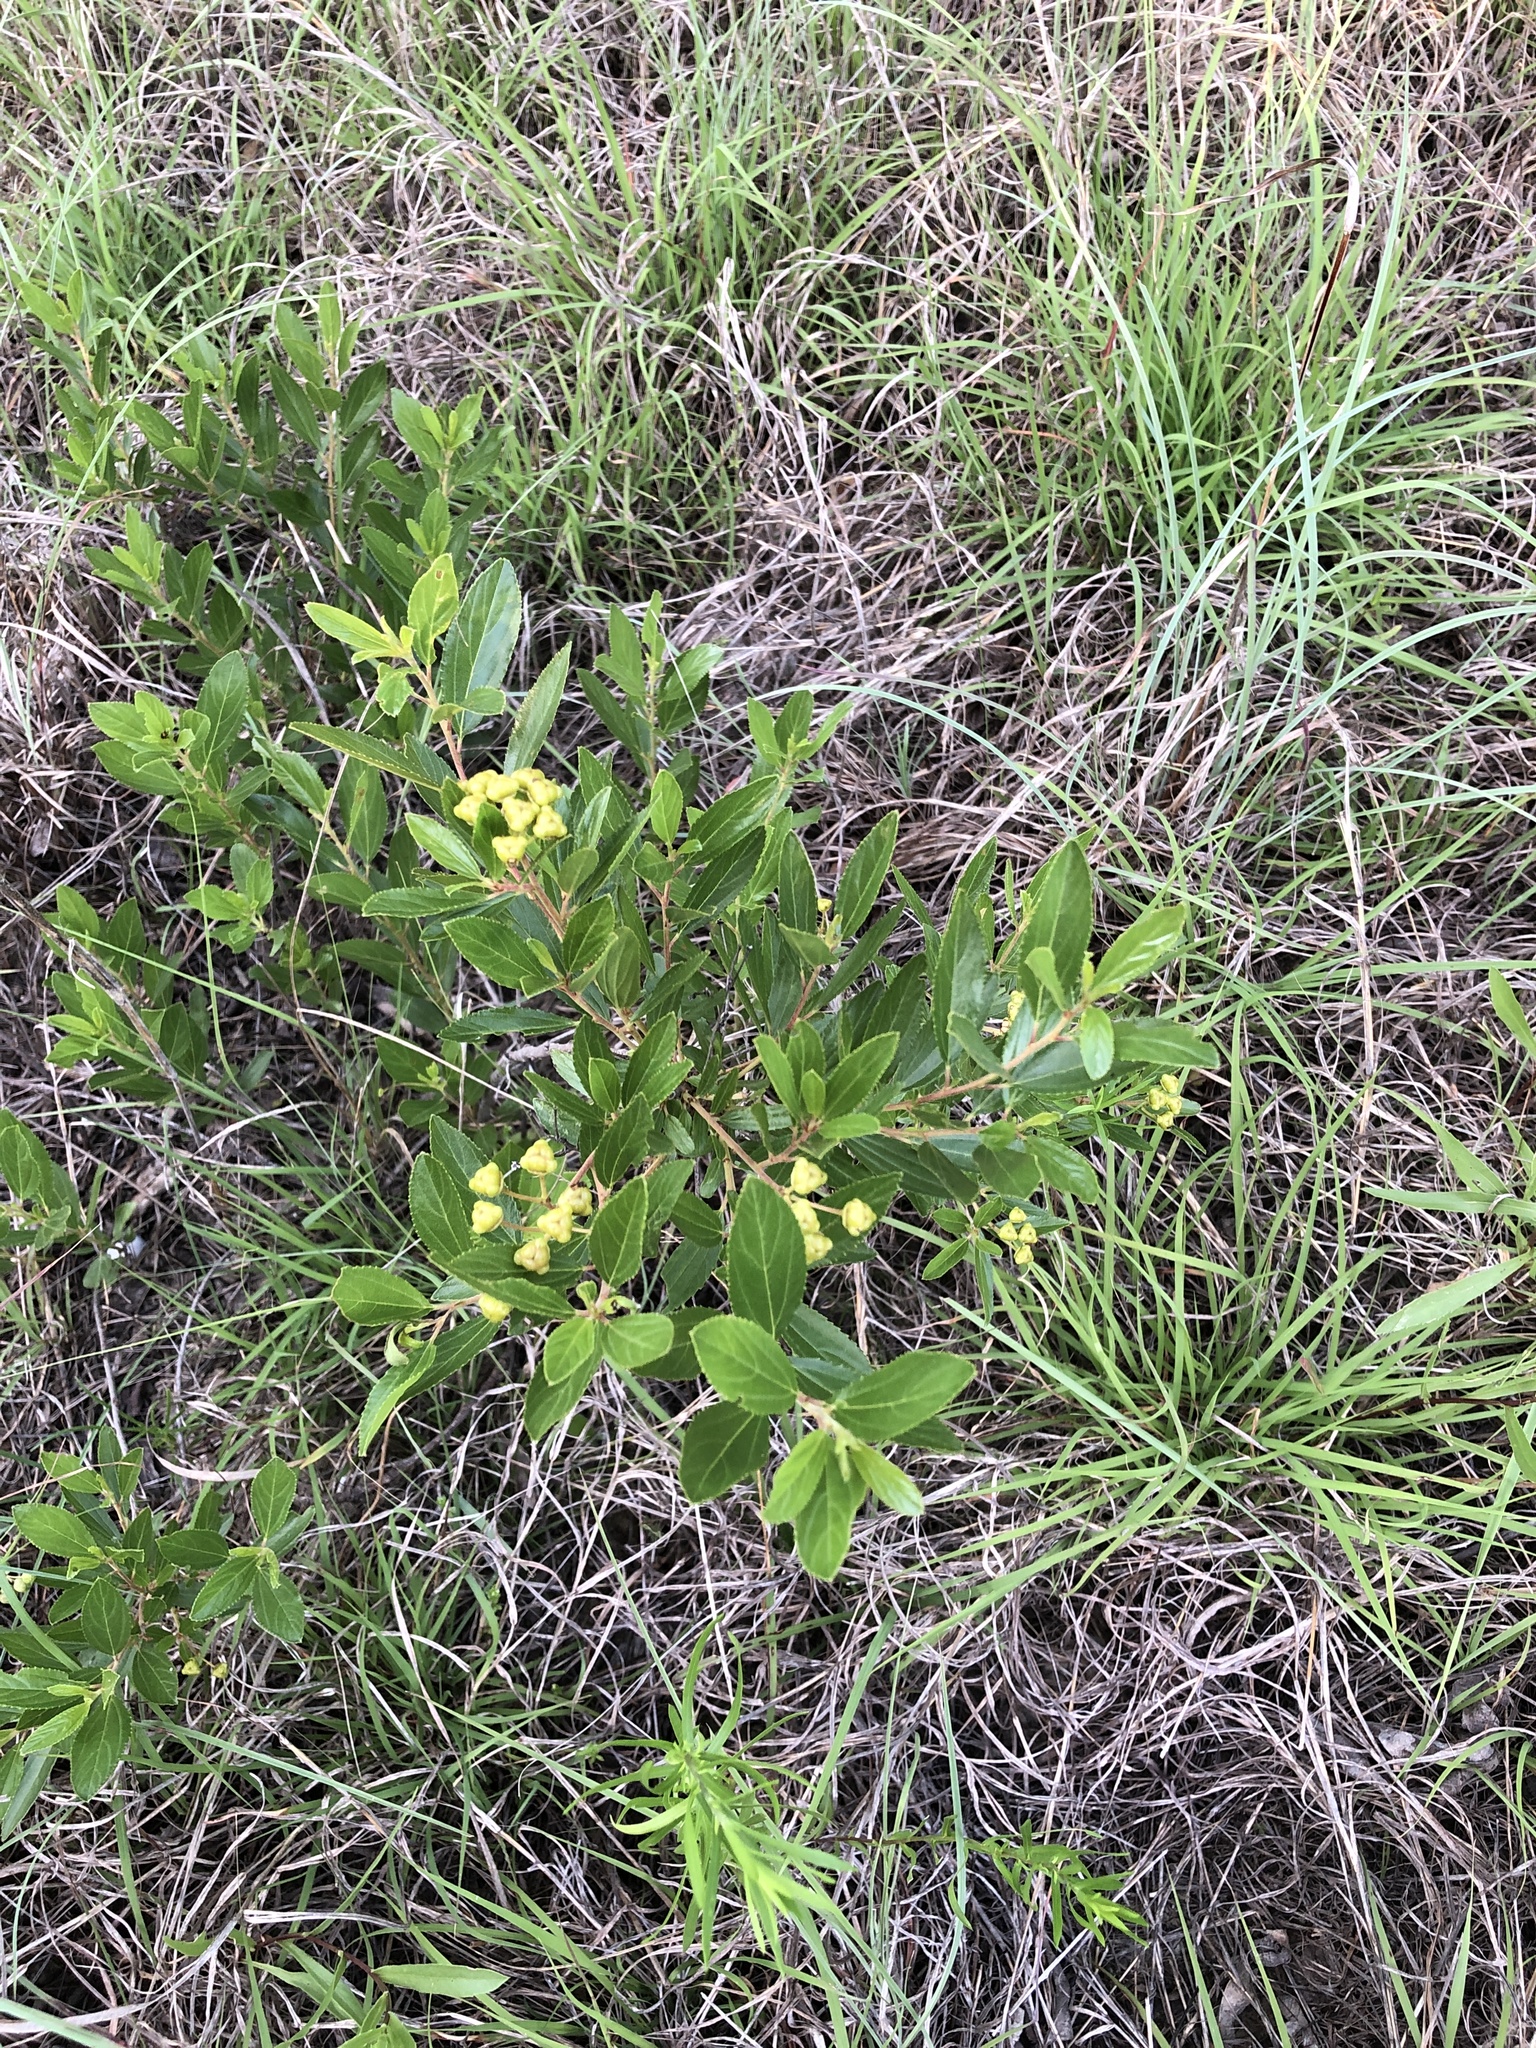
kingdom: Plantae
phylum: Tracheophyta
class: Magnoliopsida
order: Rosales
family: Rhamnaceae
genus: Ceanothus
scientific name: Ceanothus herbaceus
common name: Inland ceanothus
